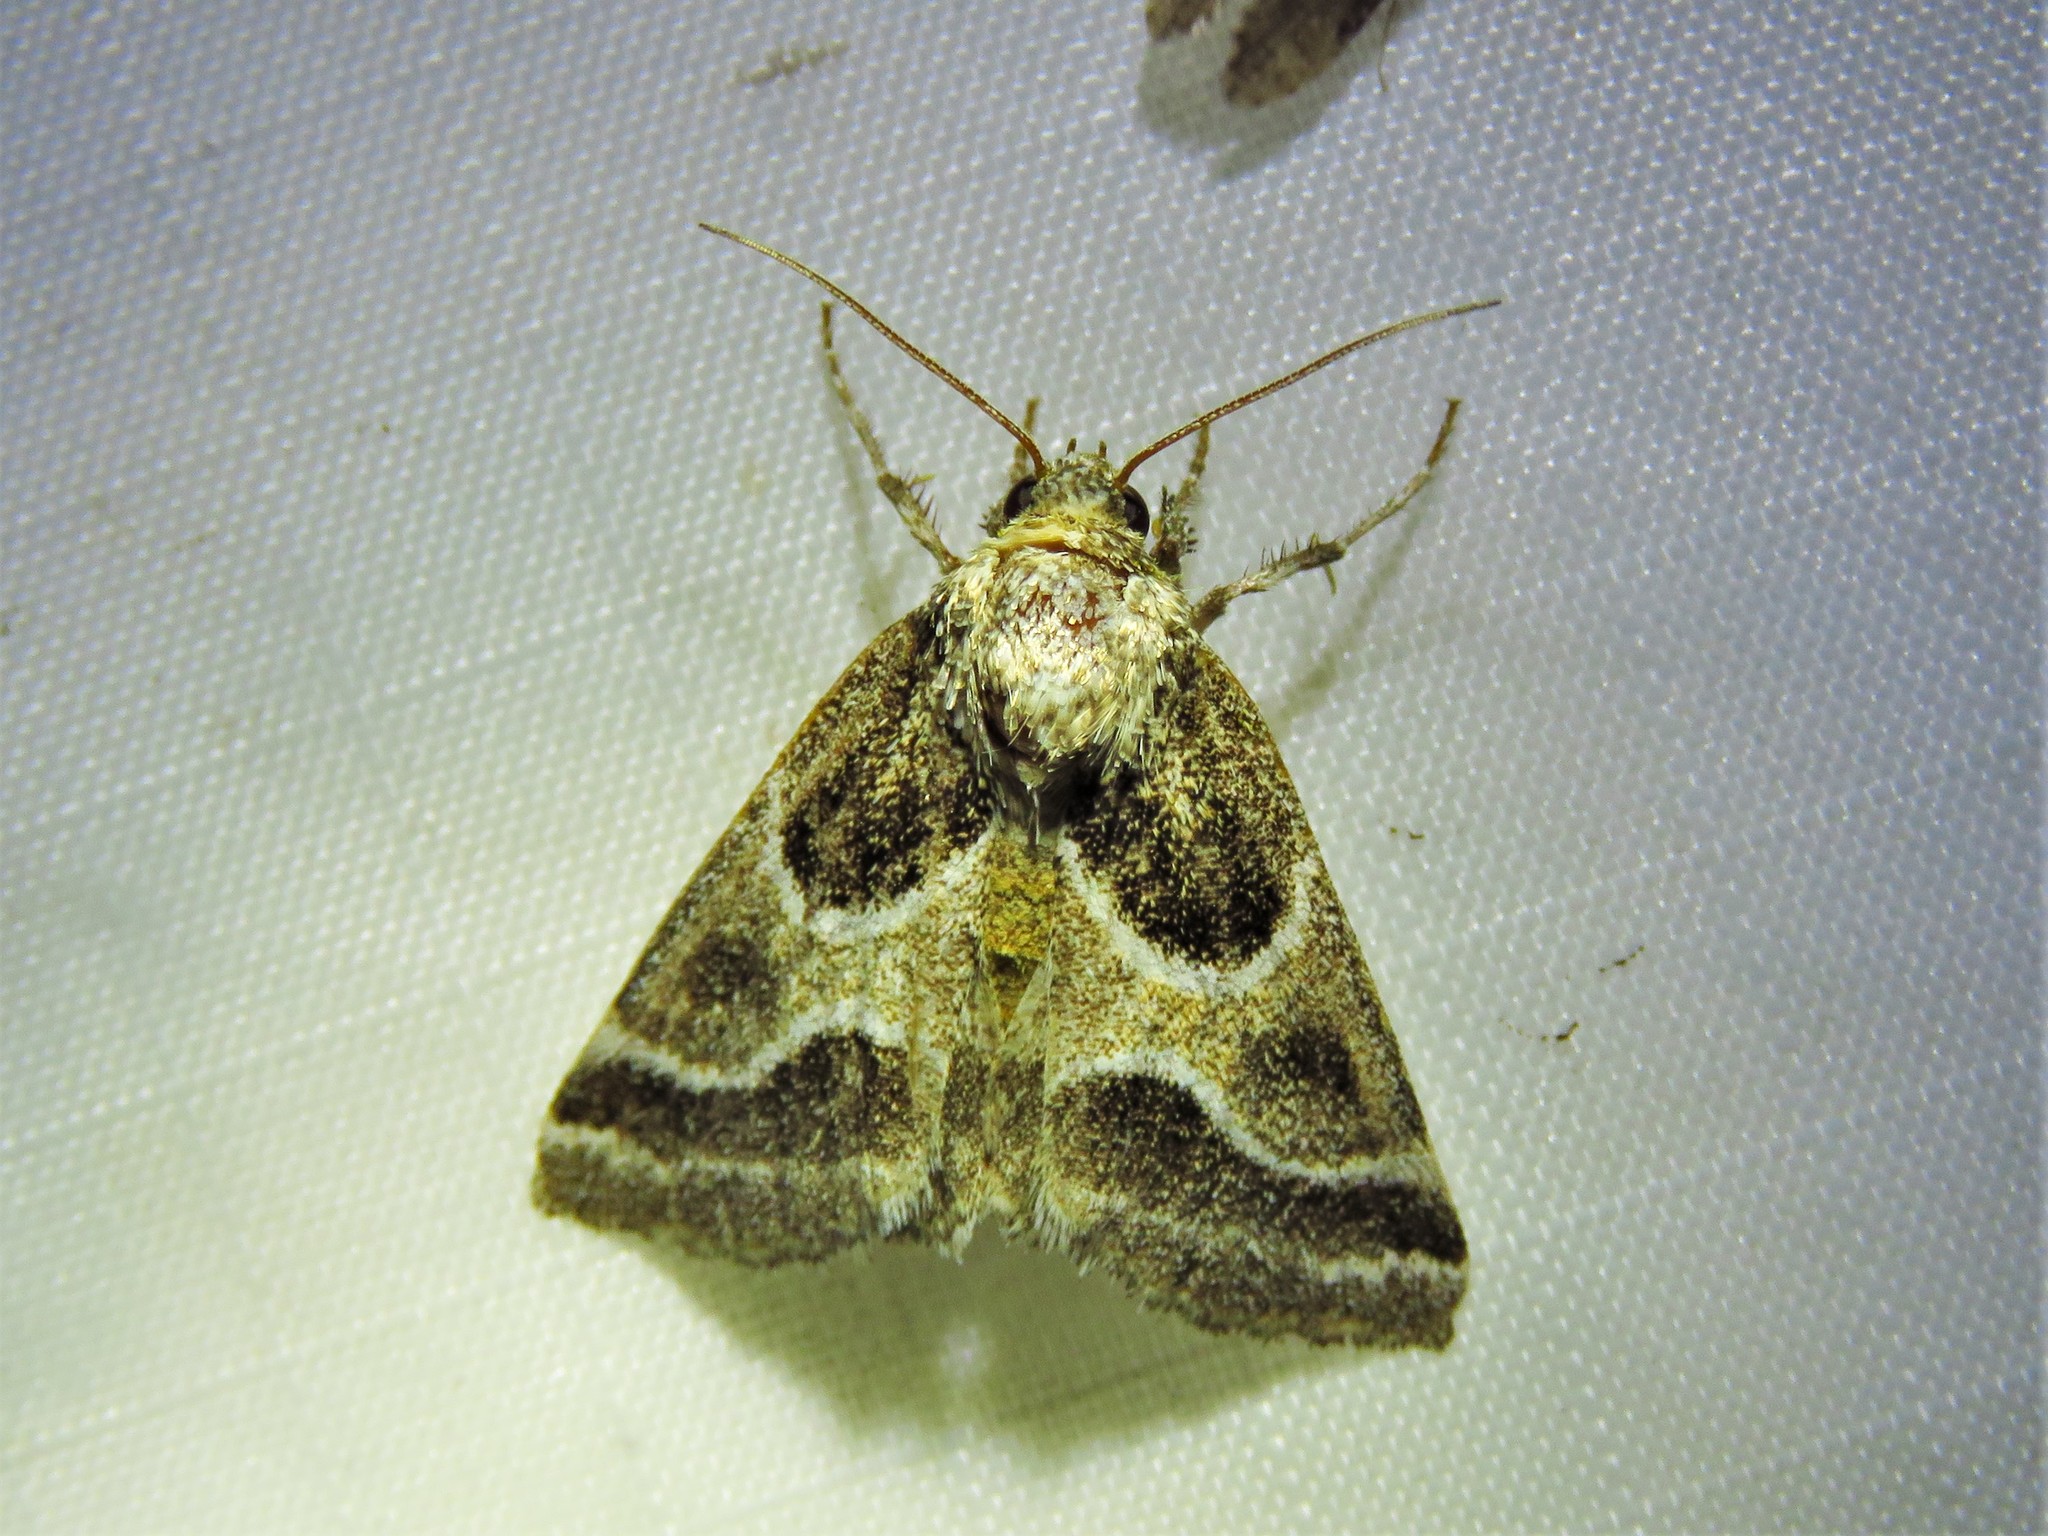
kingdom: Animalia
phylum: Arthropoda
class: Insecta
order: Lepidoptera
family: Noctuidae
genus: Schinia
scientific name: Schinia rivulosa
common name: Scarce meal-moth
